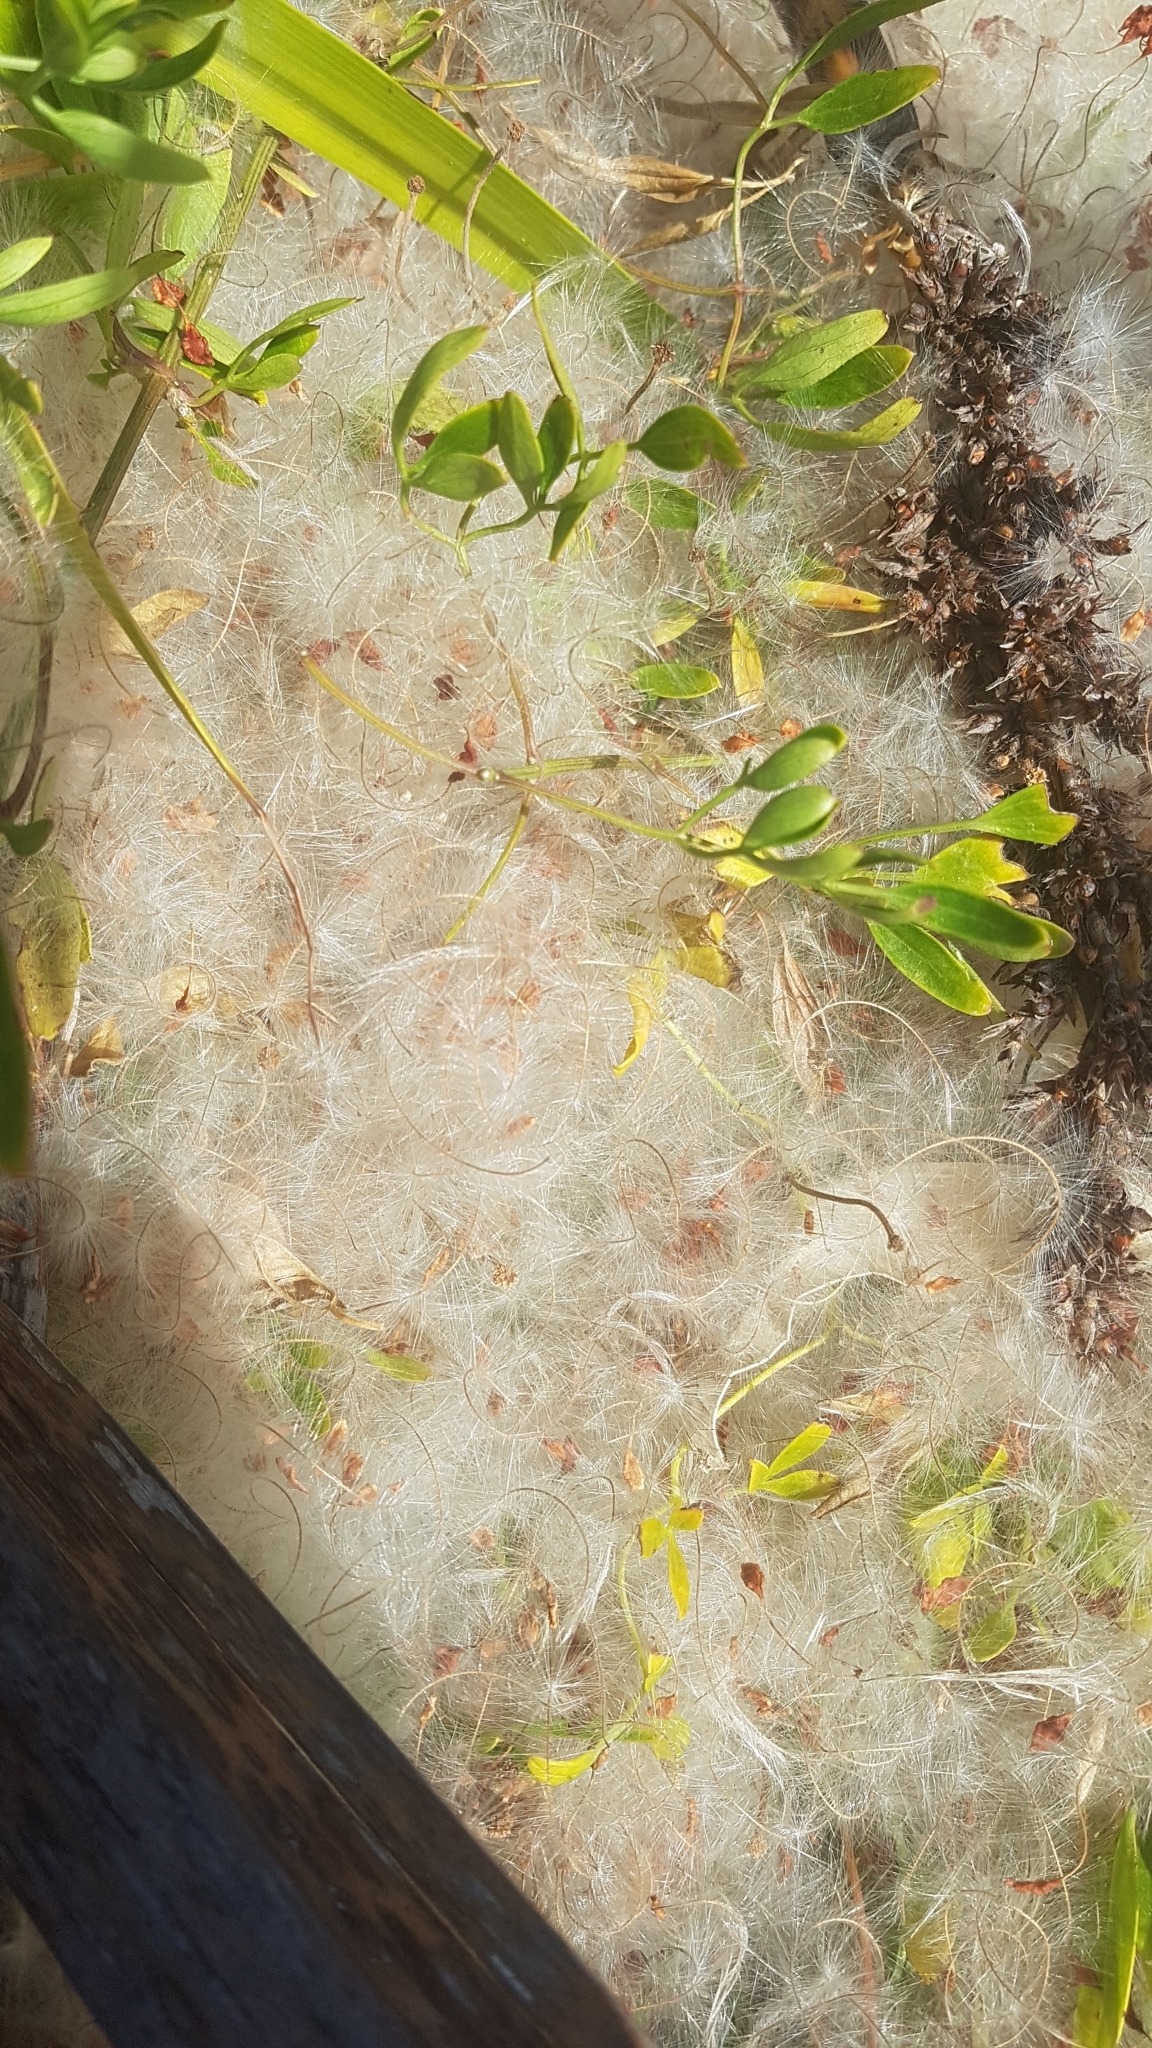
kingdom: Plantae
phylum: Tracheophyta
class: Magnoliopsida
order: Ranunculales
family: Ranunculaceae
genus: Clematis
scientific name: Clematis microphylla
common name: Headachevine
